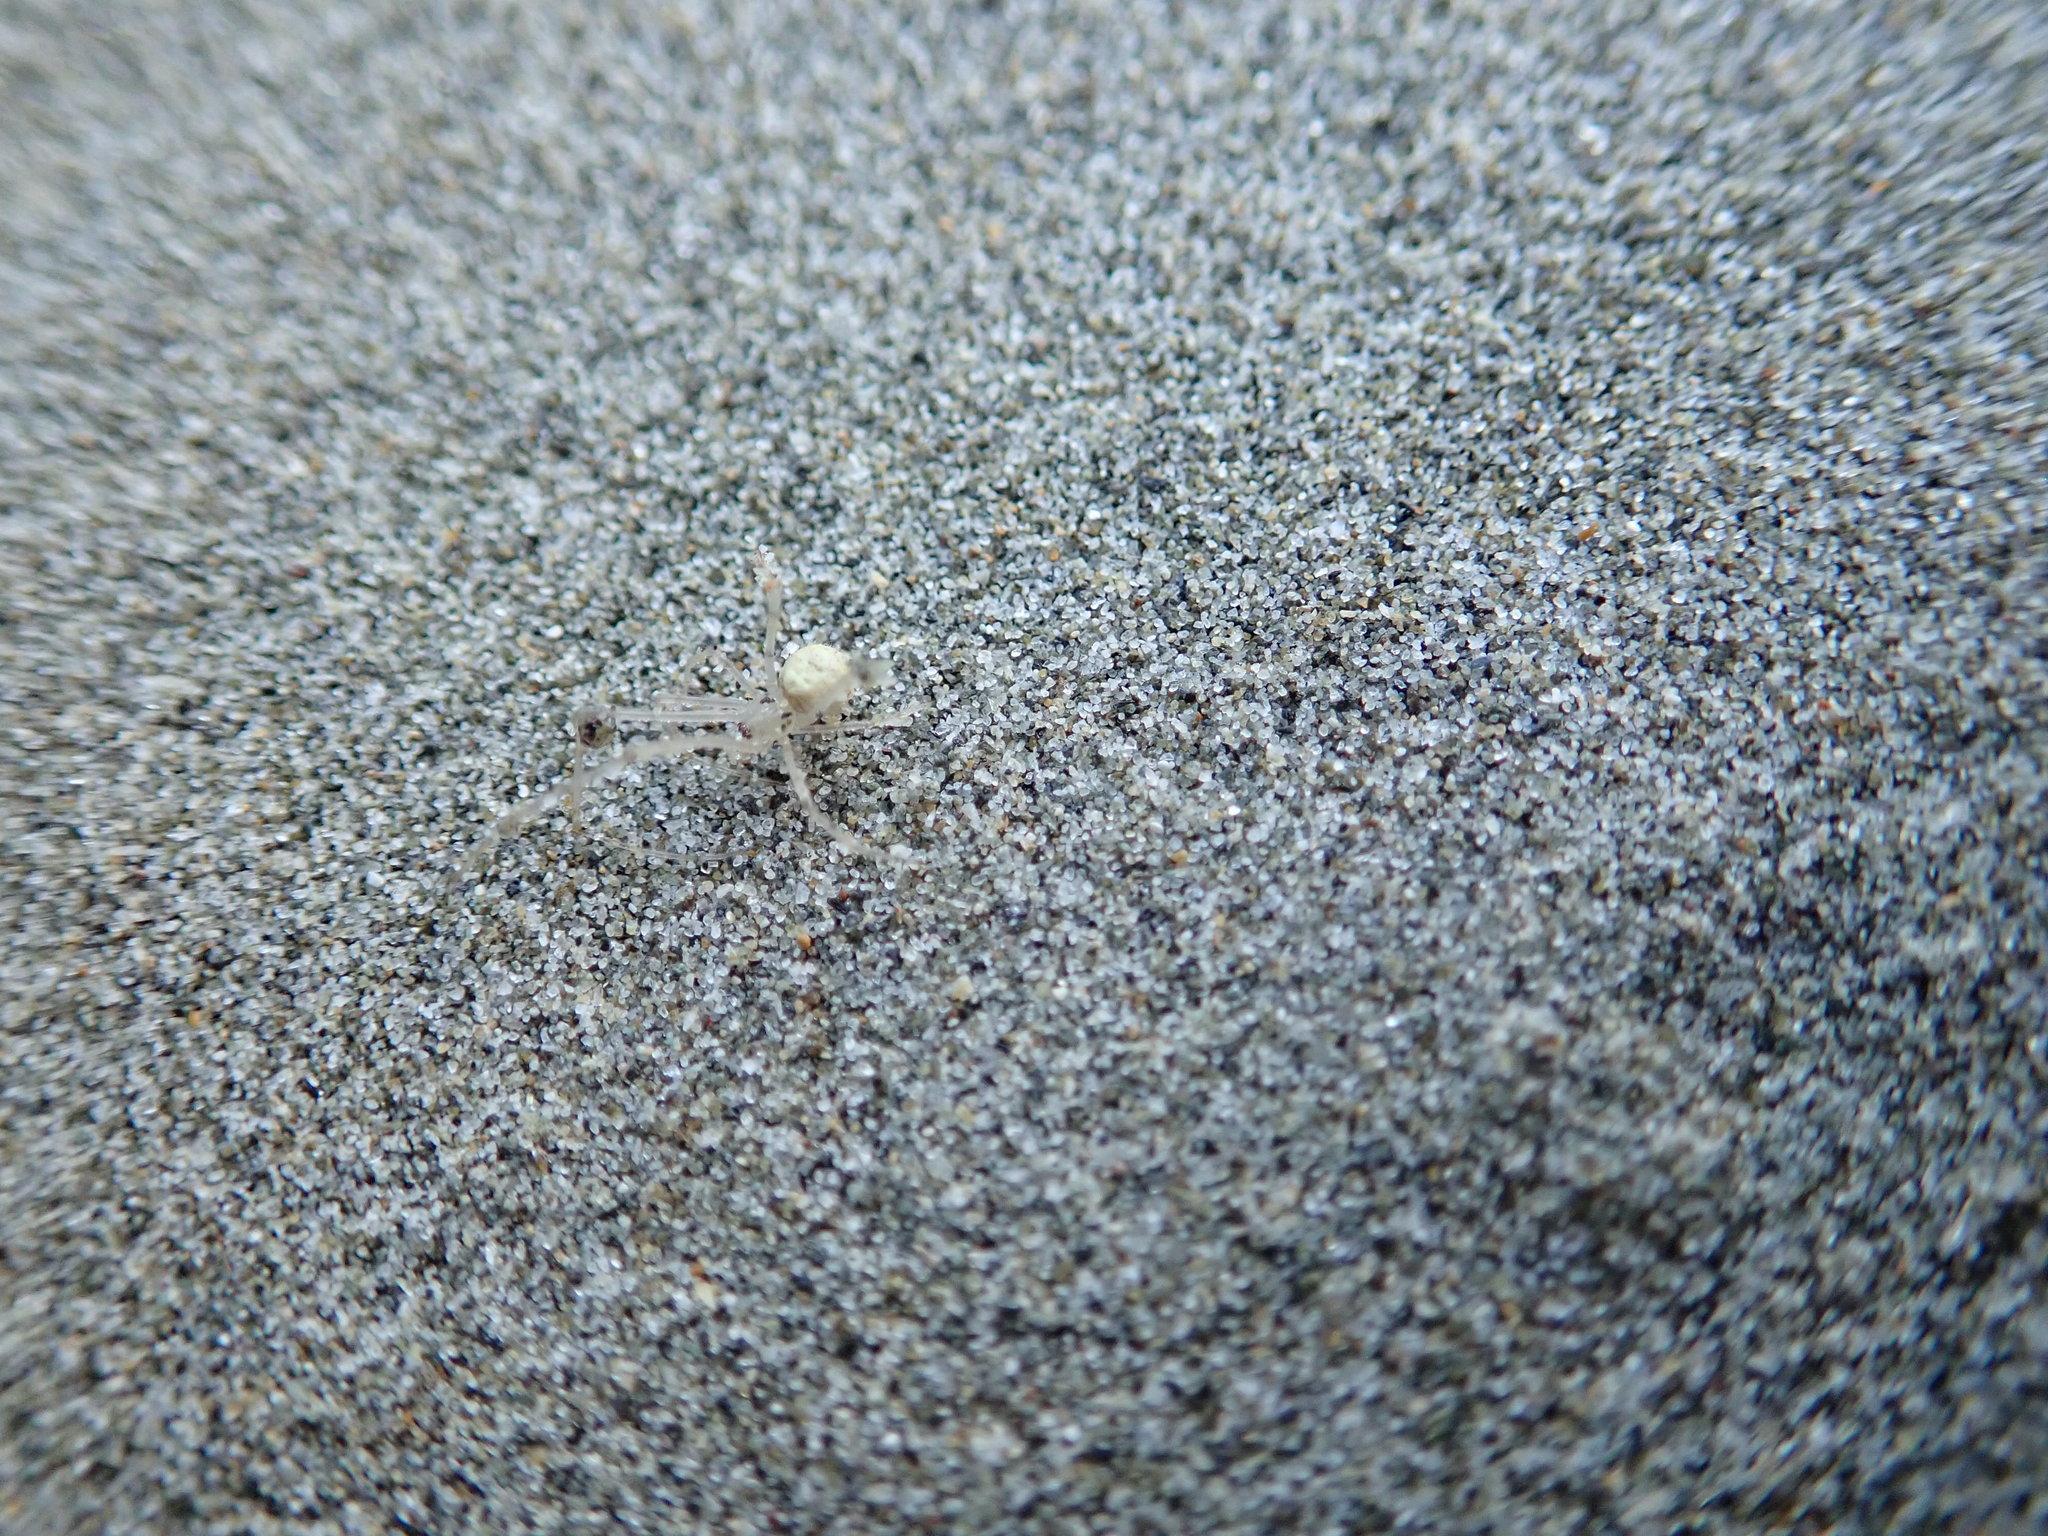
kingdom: Animalia
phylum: Arthropoda
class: Arachnida
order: Araneae
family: Theridiidae
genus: Cryptachaea
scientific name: Cryptachaea gigantipes
